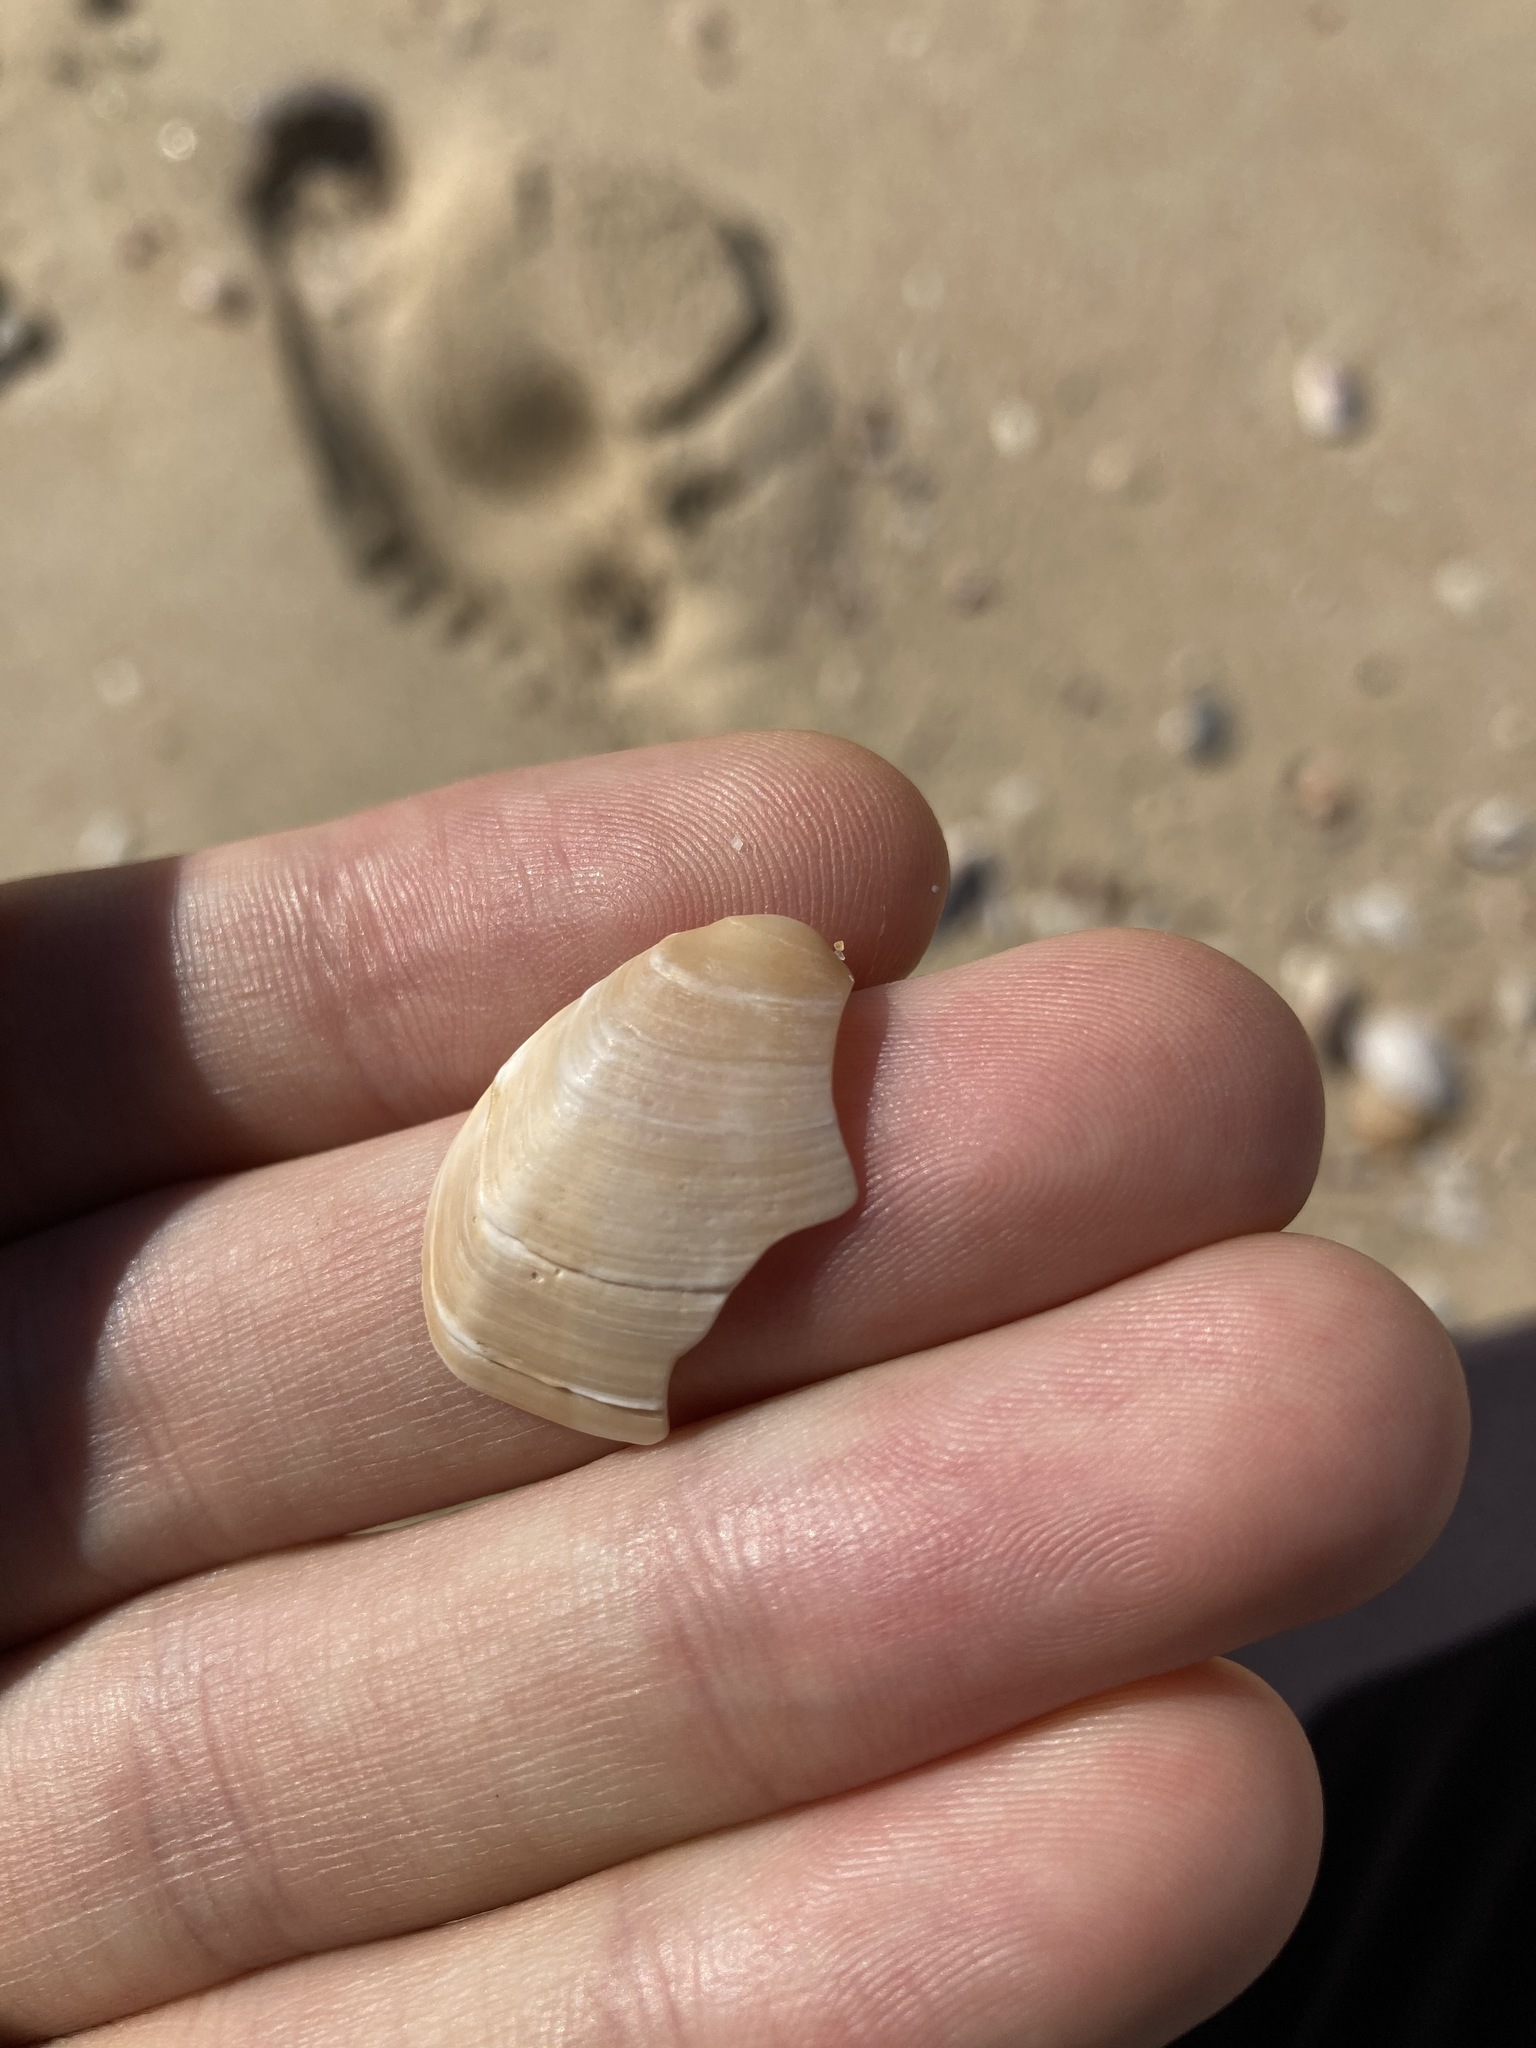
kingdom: Animalia
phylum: Mollusca
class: Bivalvia
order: Venerida
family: Veneridae
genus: Bassina
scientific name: Bassina jacksonii
